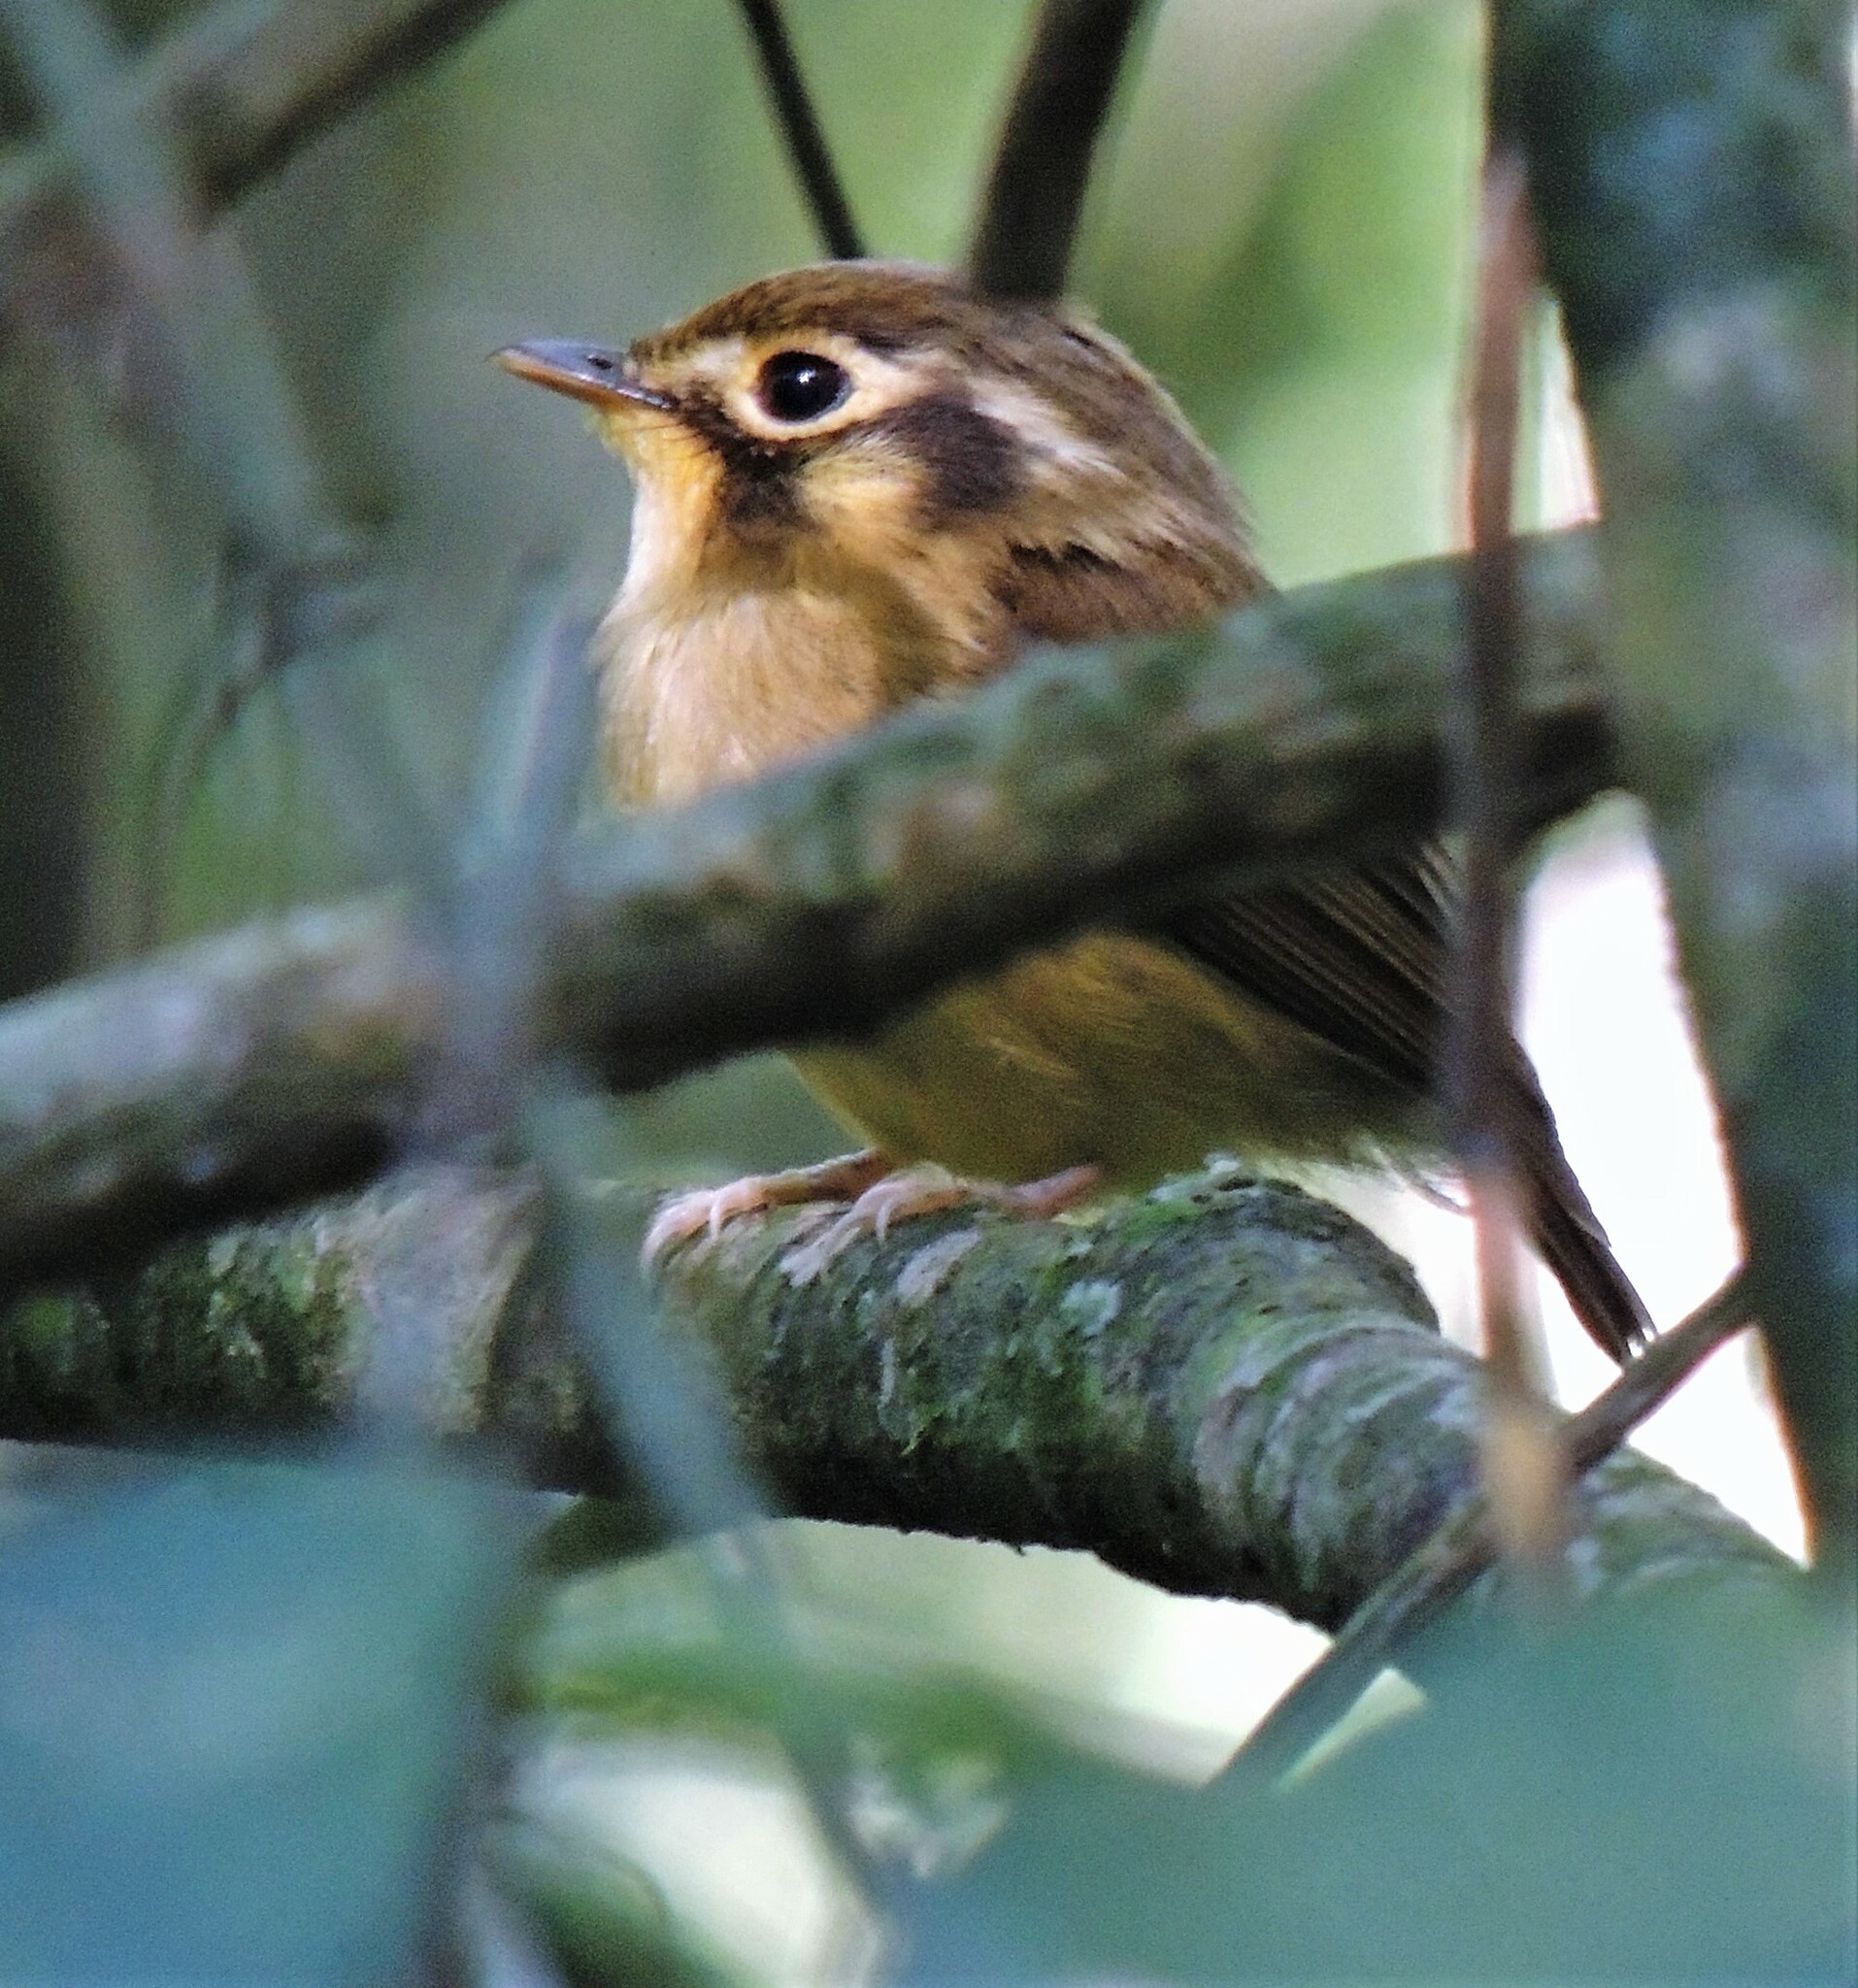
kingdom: Animalia
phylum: Chordata
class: Aves
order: Passeriformes
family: Tyrannidae
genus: Platyrinchus
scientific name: Platyrinchus mystaceus
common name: White-throated spadebill
